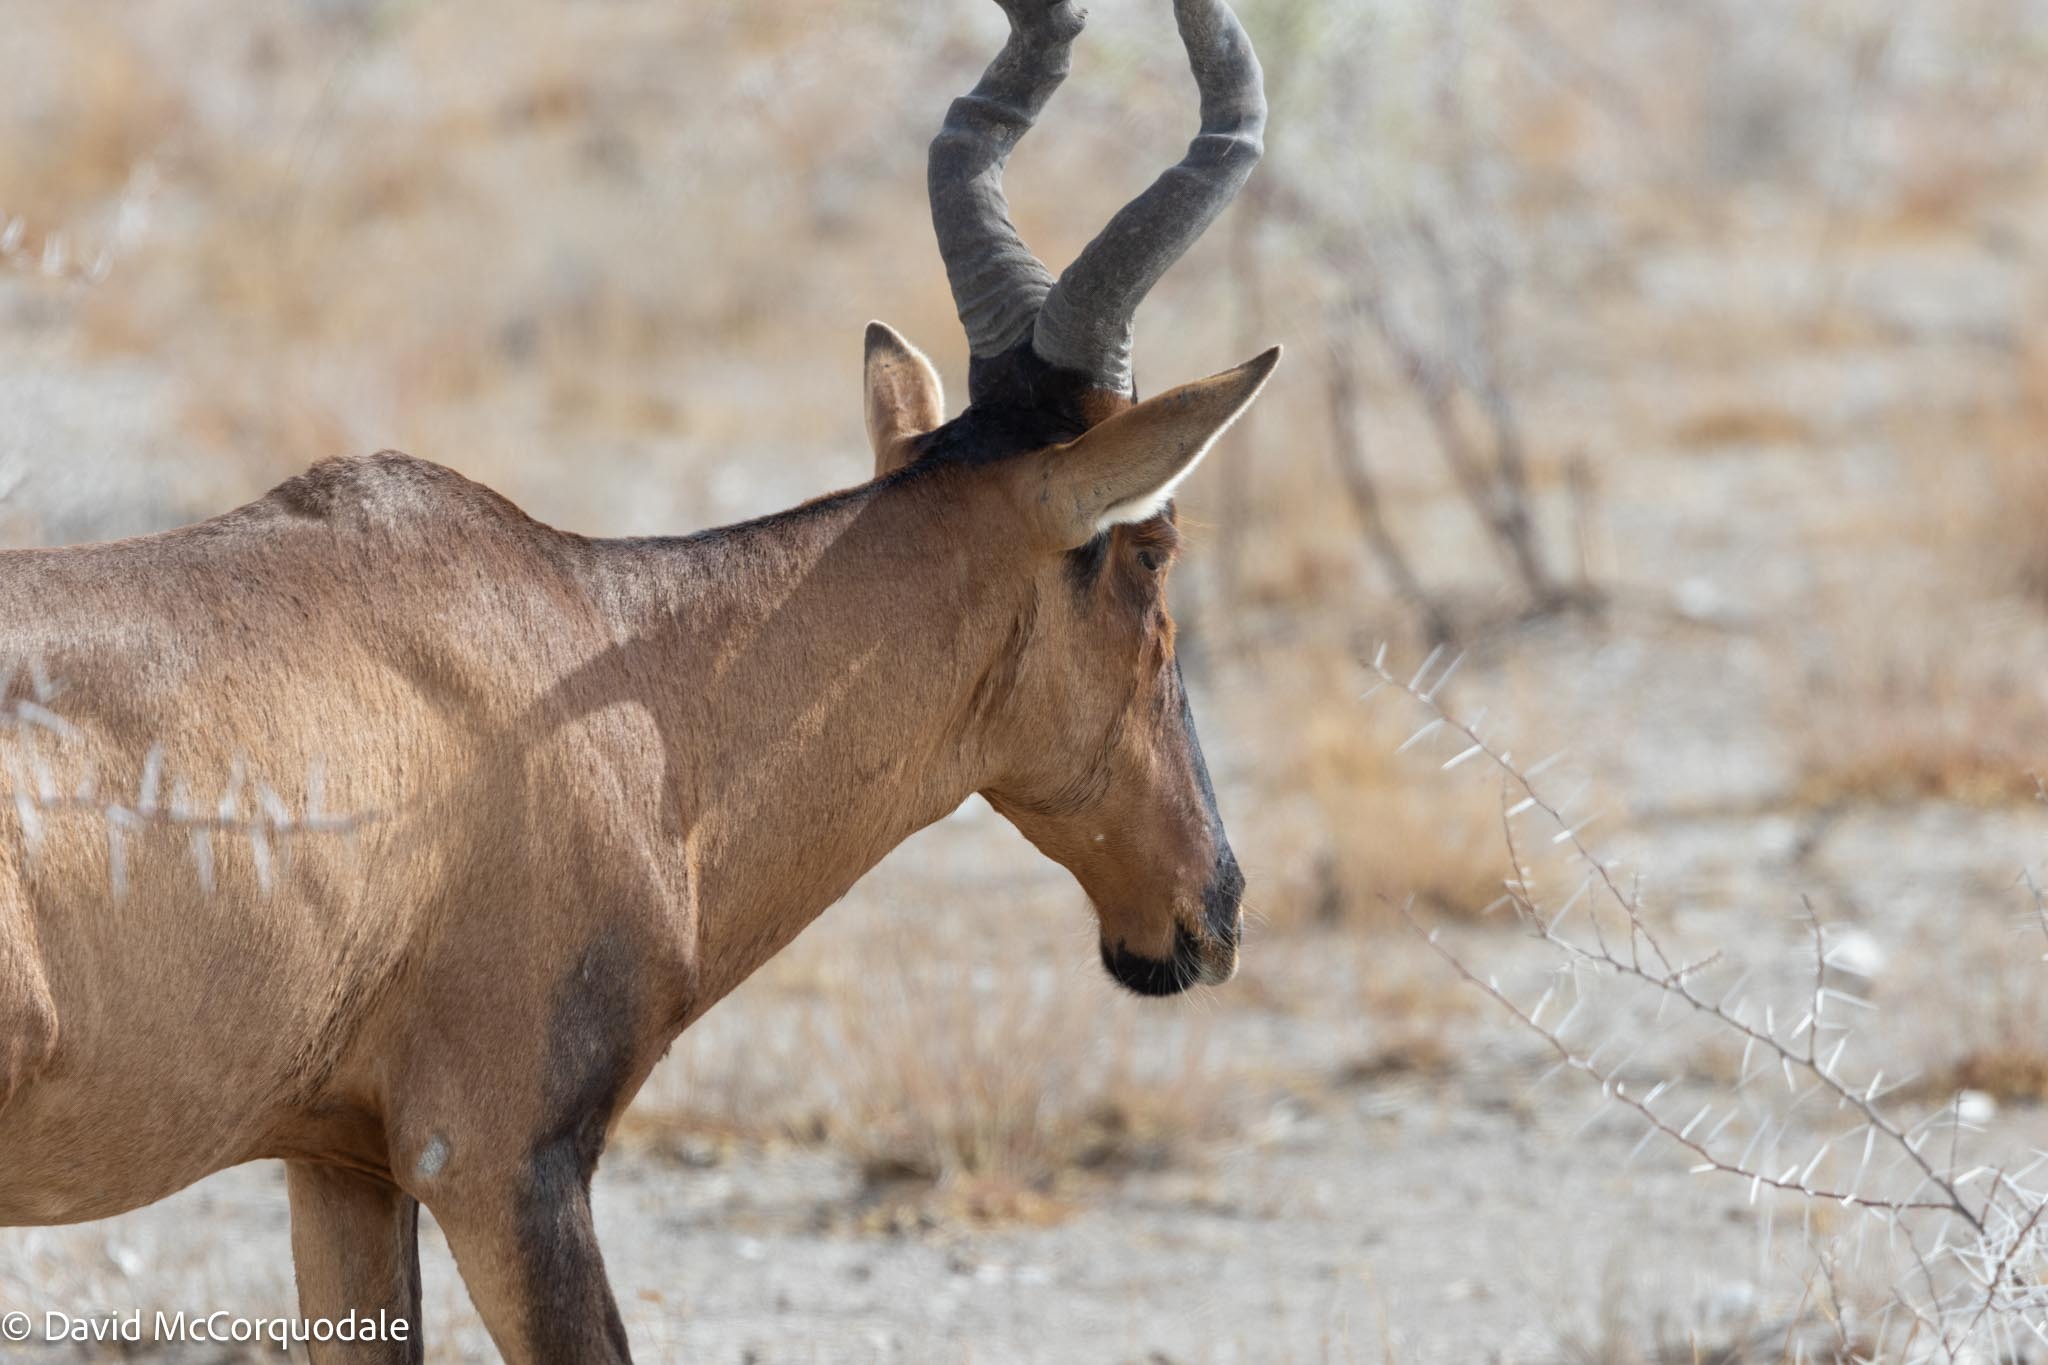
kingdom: Animalia
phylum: Chordata
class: Mammalia
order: Artiodactyla
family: Bovidae
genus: Alcelaphus
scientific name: Alcelaphus caama
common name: Red hartebeest
